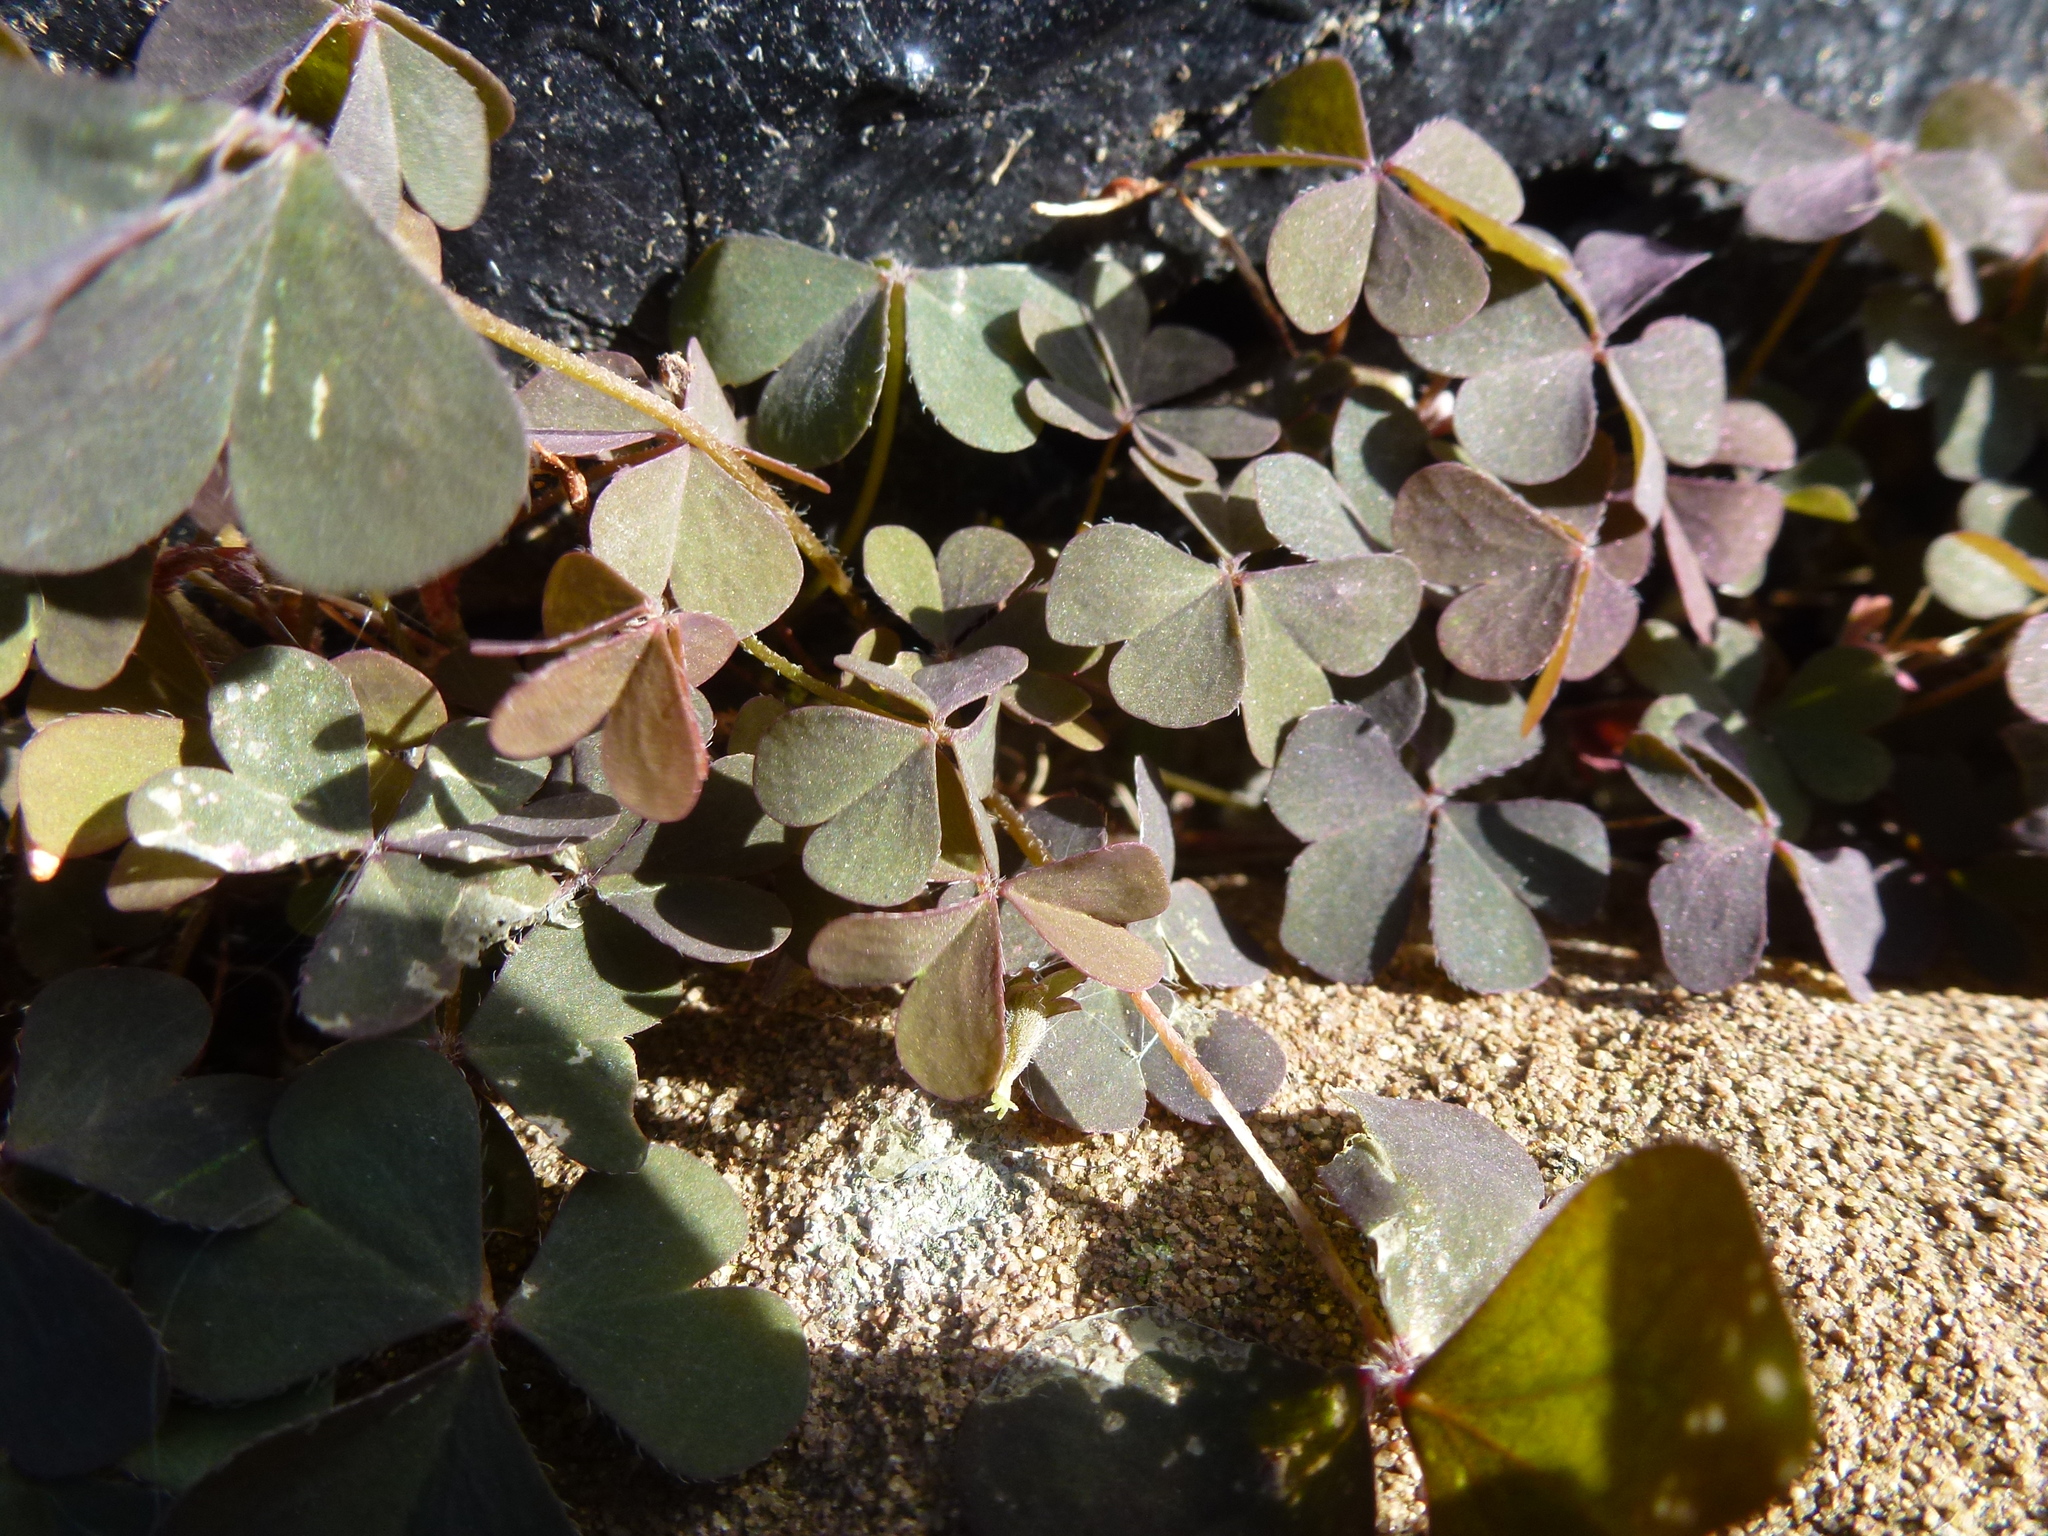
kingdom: Plantae
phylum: Tracheophyta
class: Magnoliopsida
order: Oxalidales
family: Oxalidaceae
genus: Oxalis
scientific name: Oxalis corniculata
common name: Procumbent yellow-sorrel
